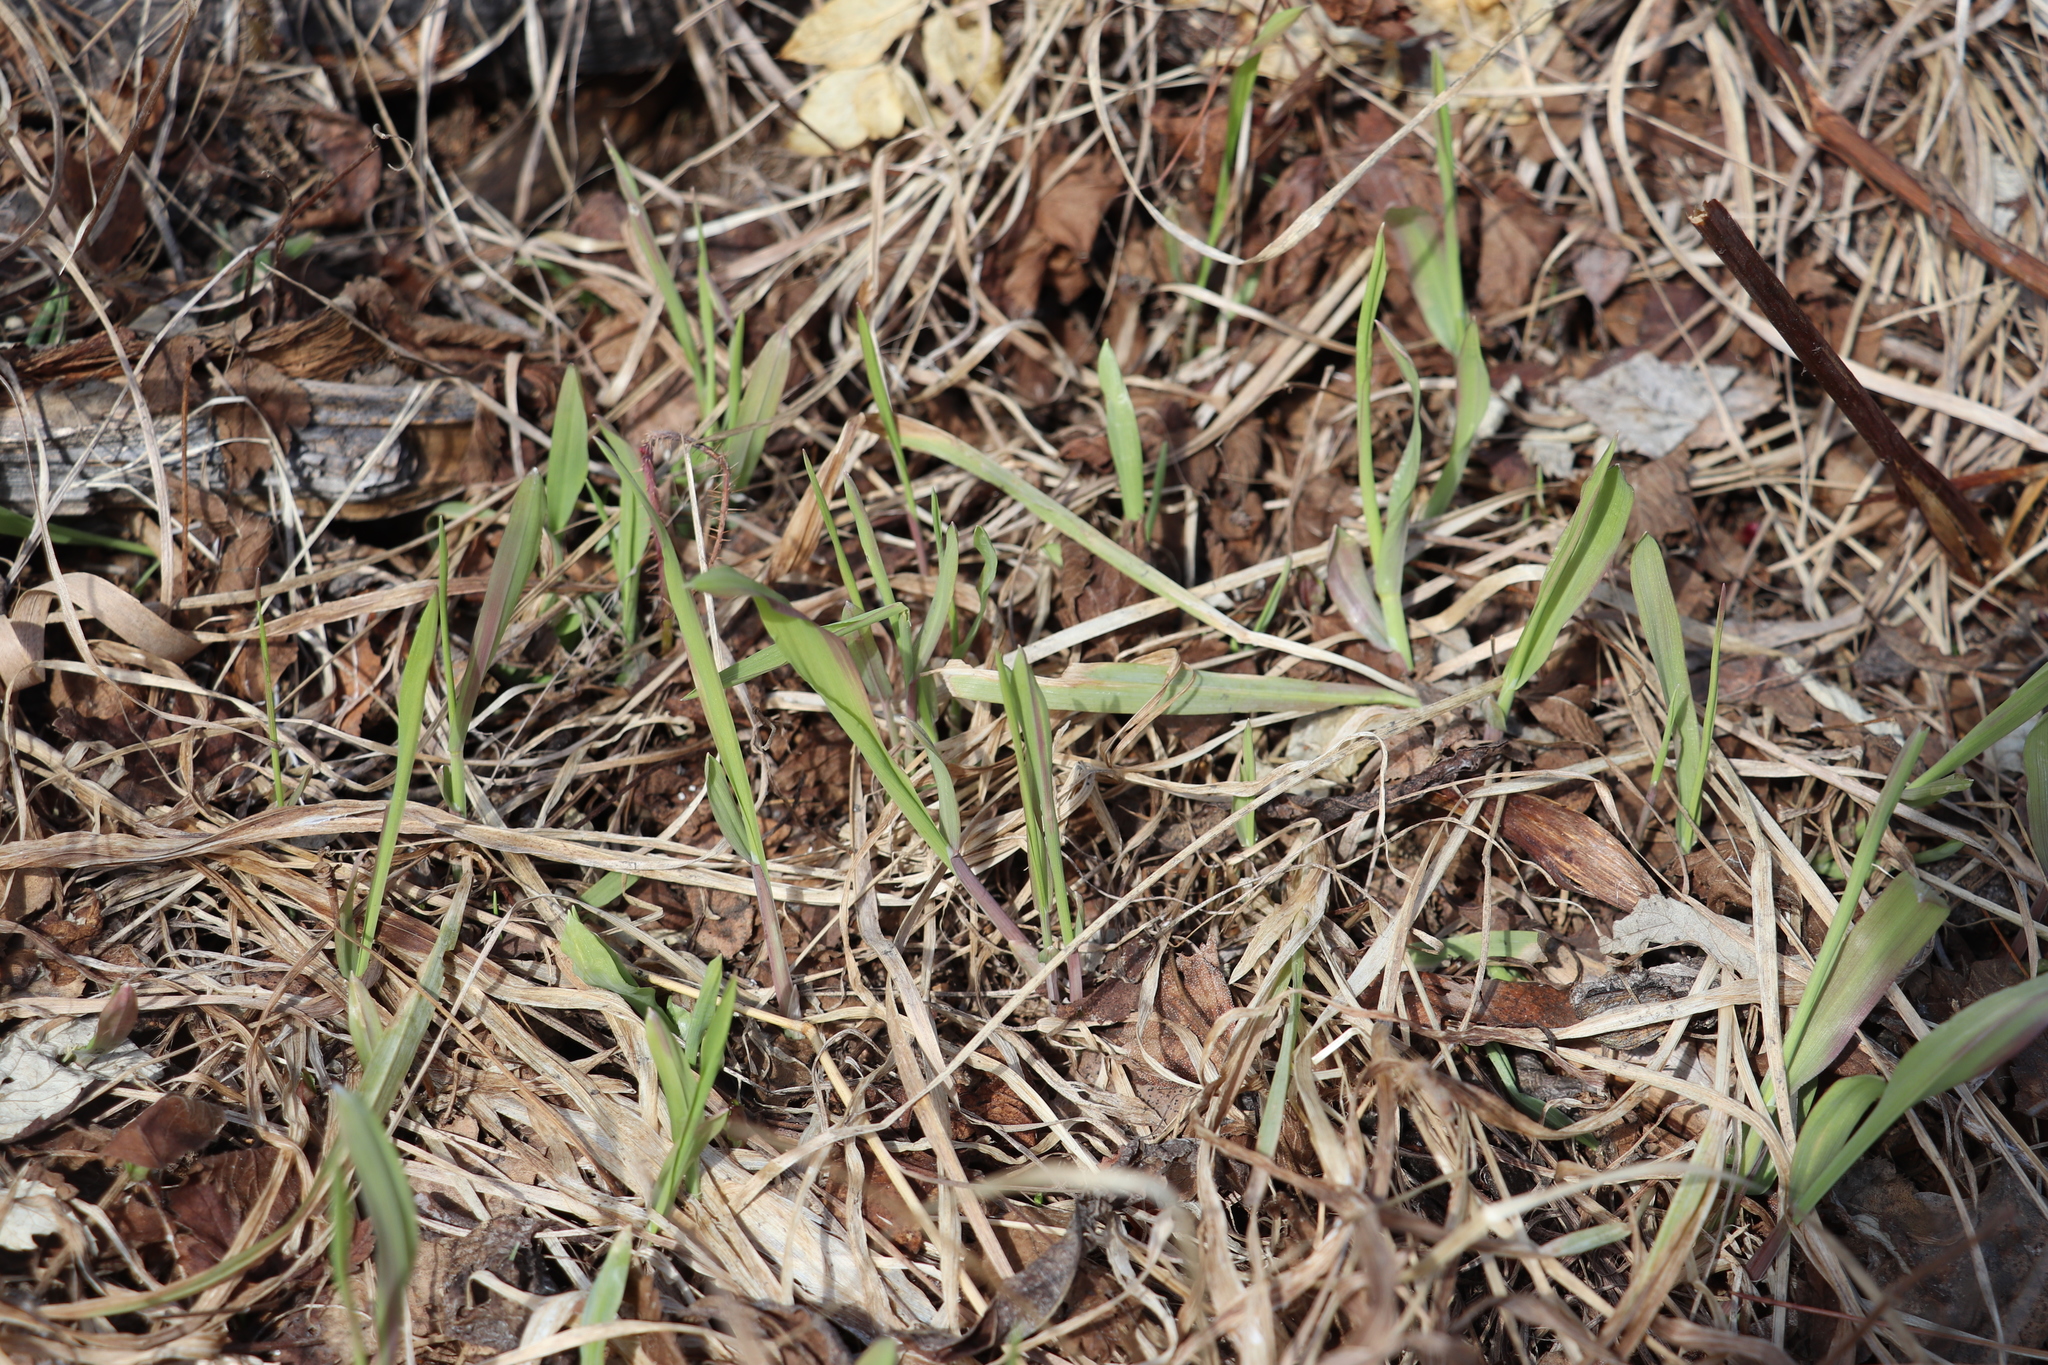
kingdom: Plantae
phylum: Tracheophyta
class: Liliopsida
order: Poales
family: Poaceae
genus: Milium
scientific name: Milium effusum
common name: Wood millet
